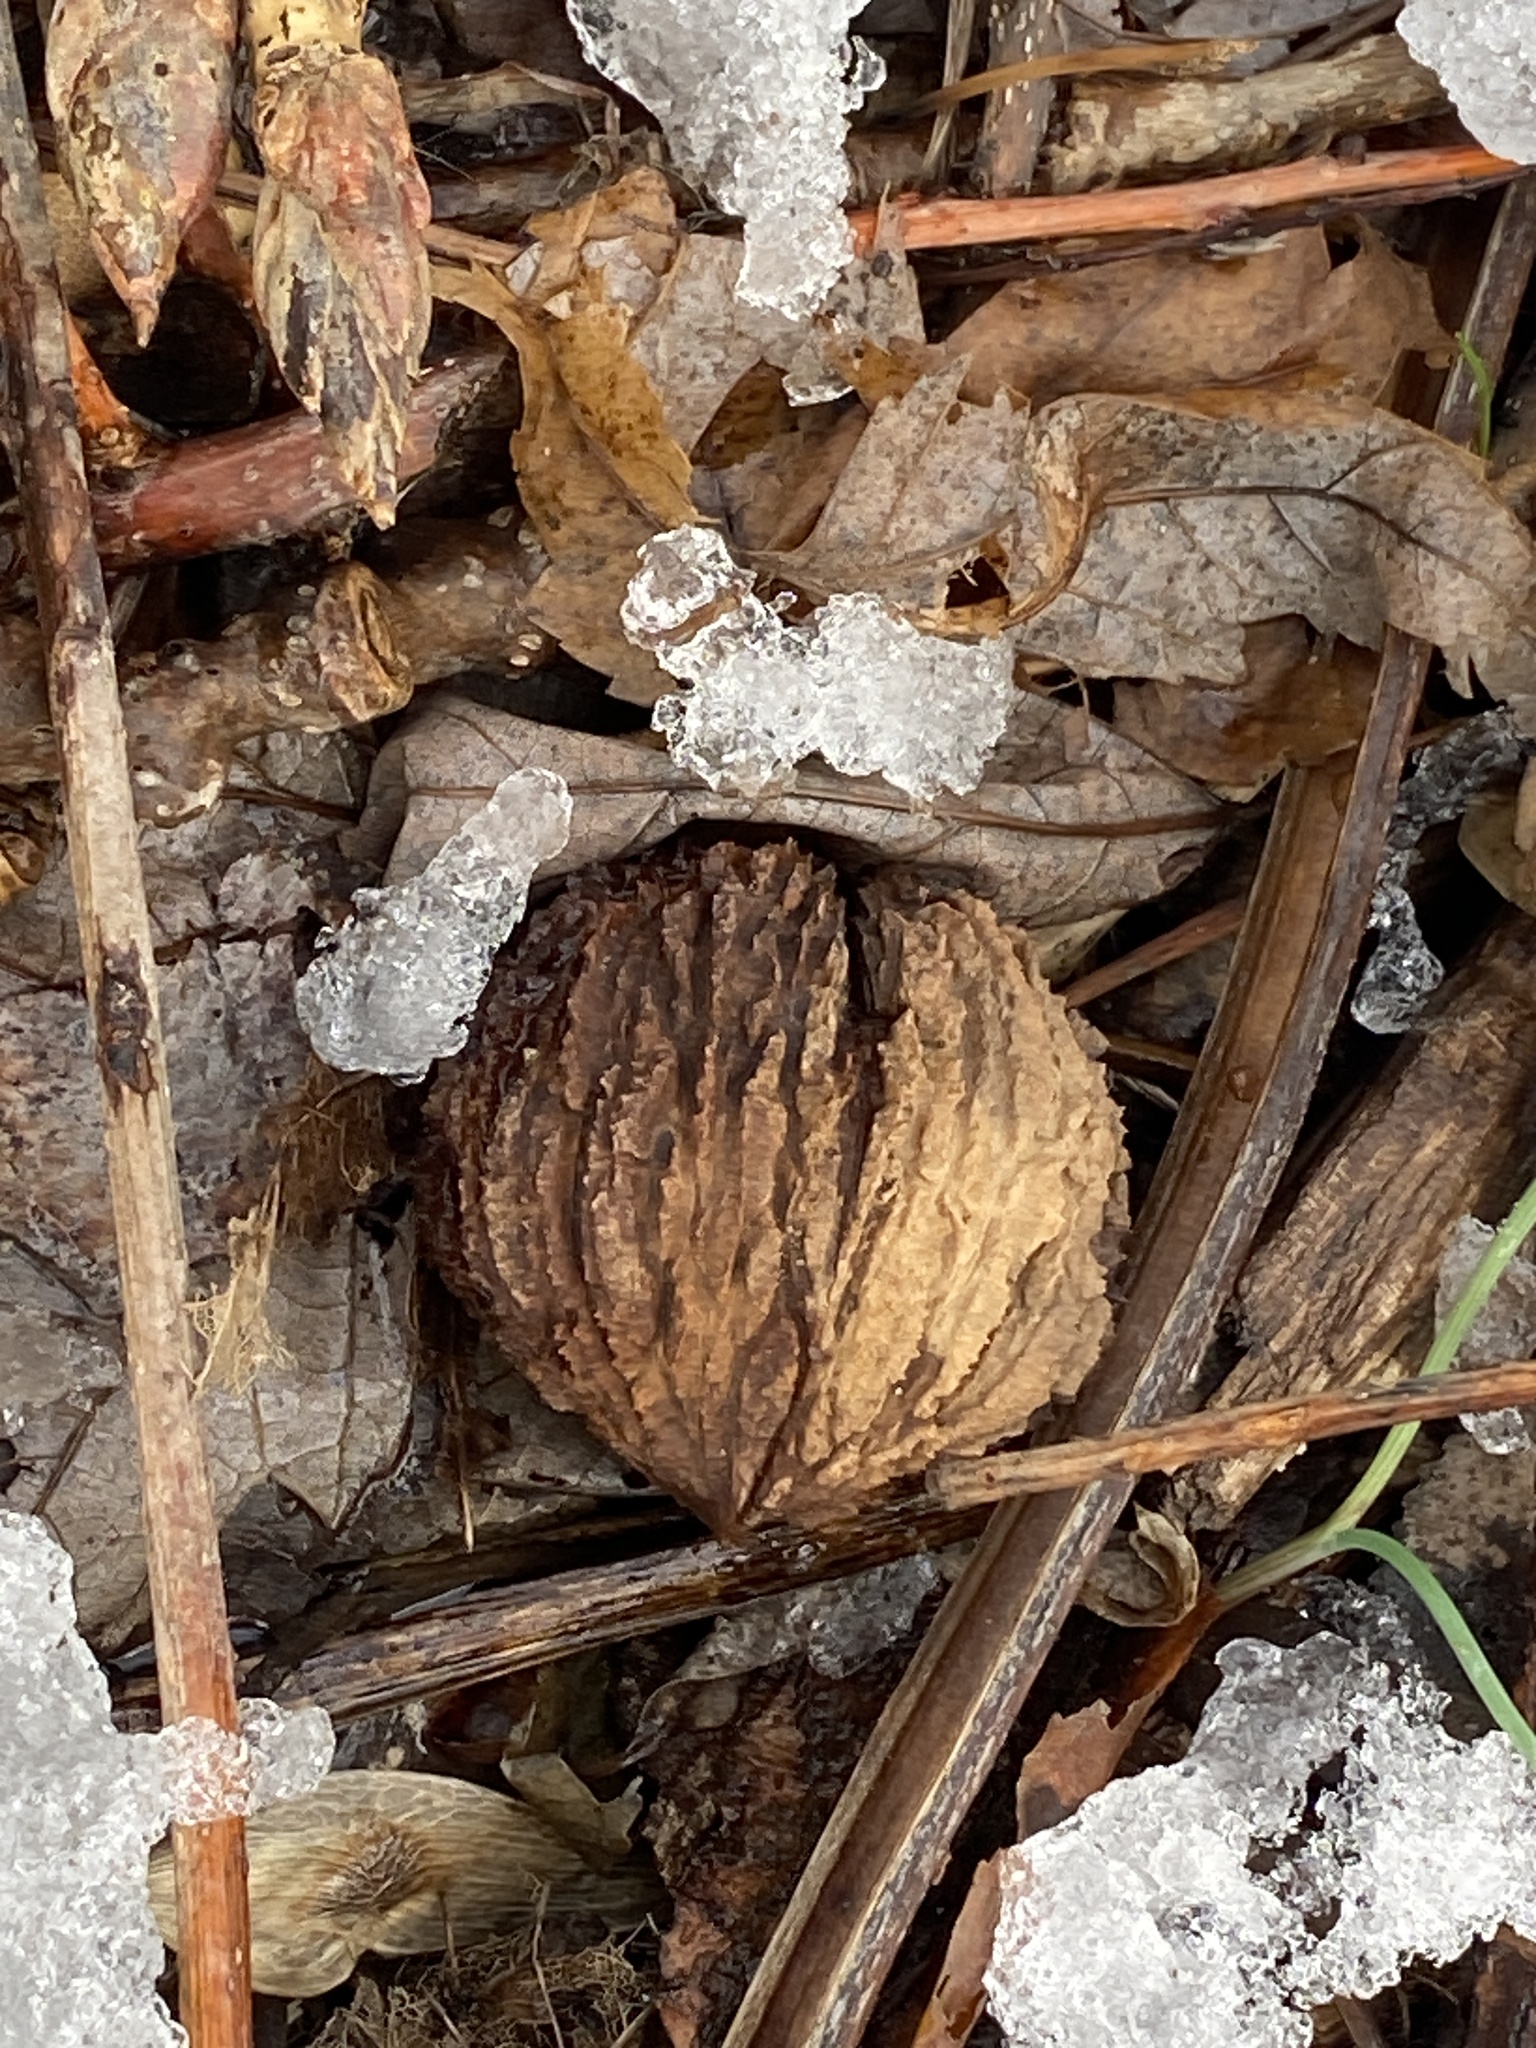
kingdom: Plantae
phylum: Tracheophyta
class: Magnoliopsida
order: Fagales
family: Juglandaceae
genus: Juglans
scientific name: Juglans nigra
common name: Black walnut
